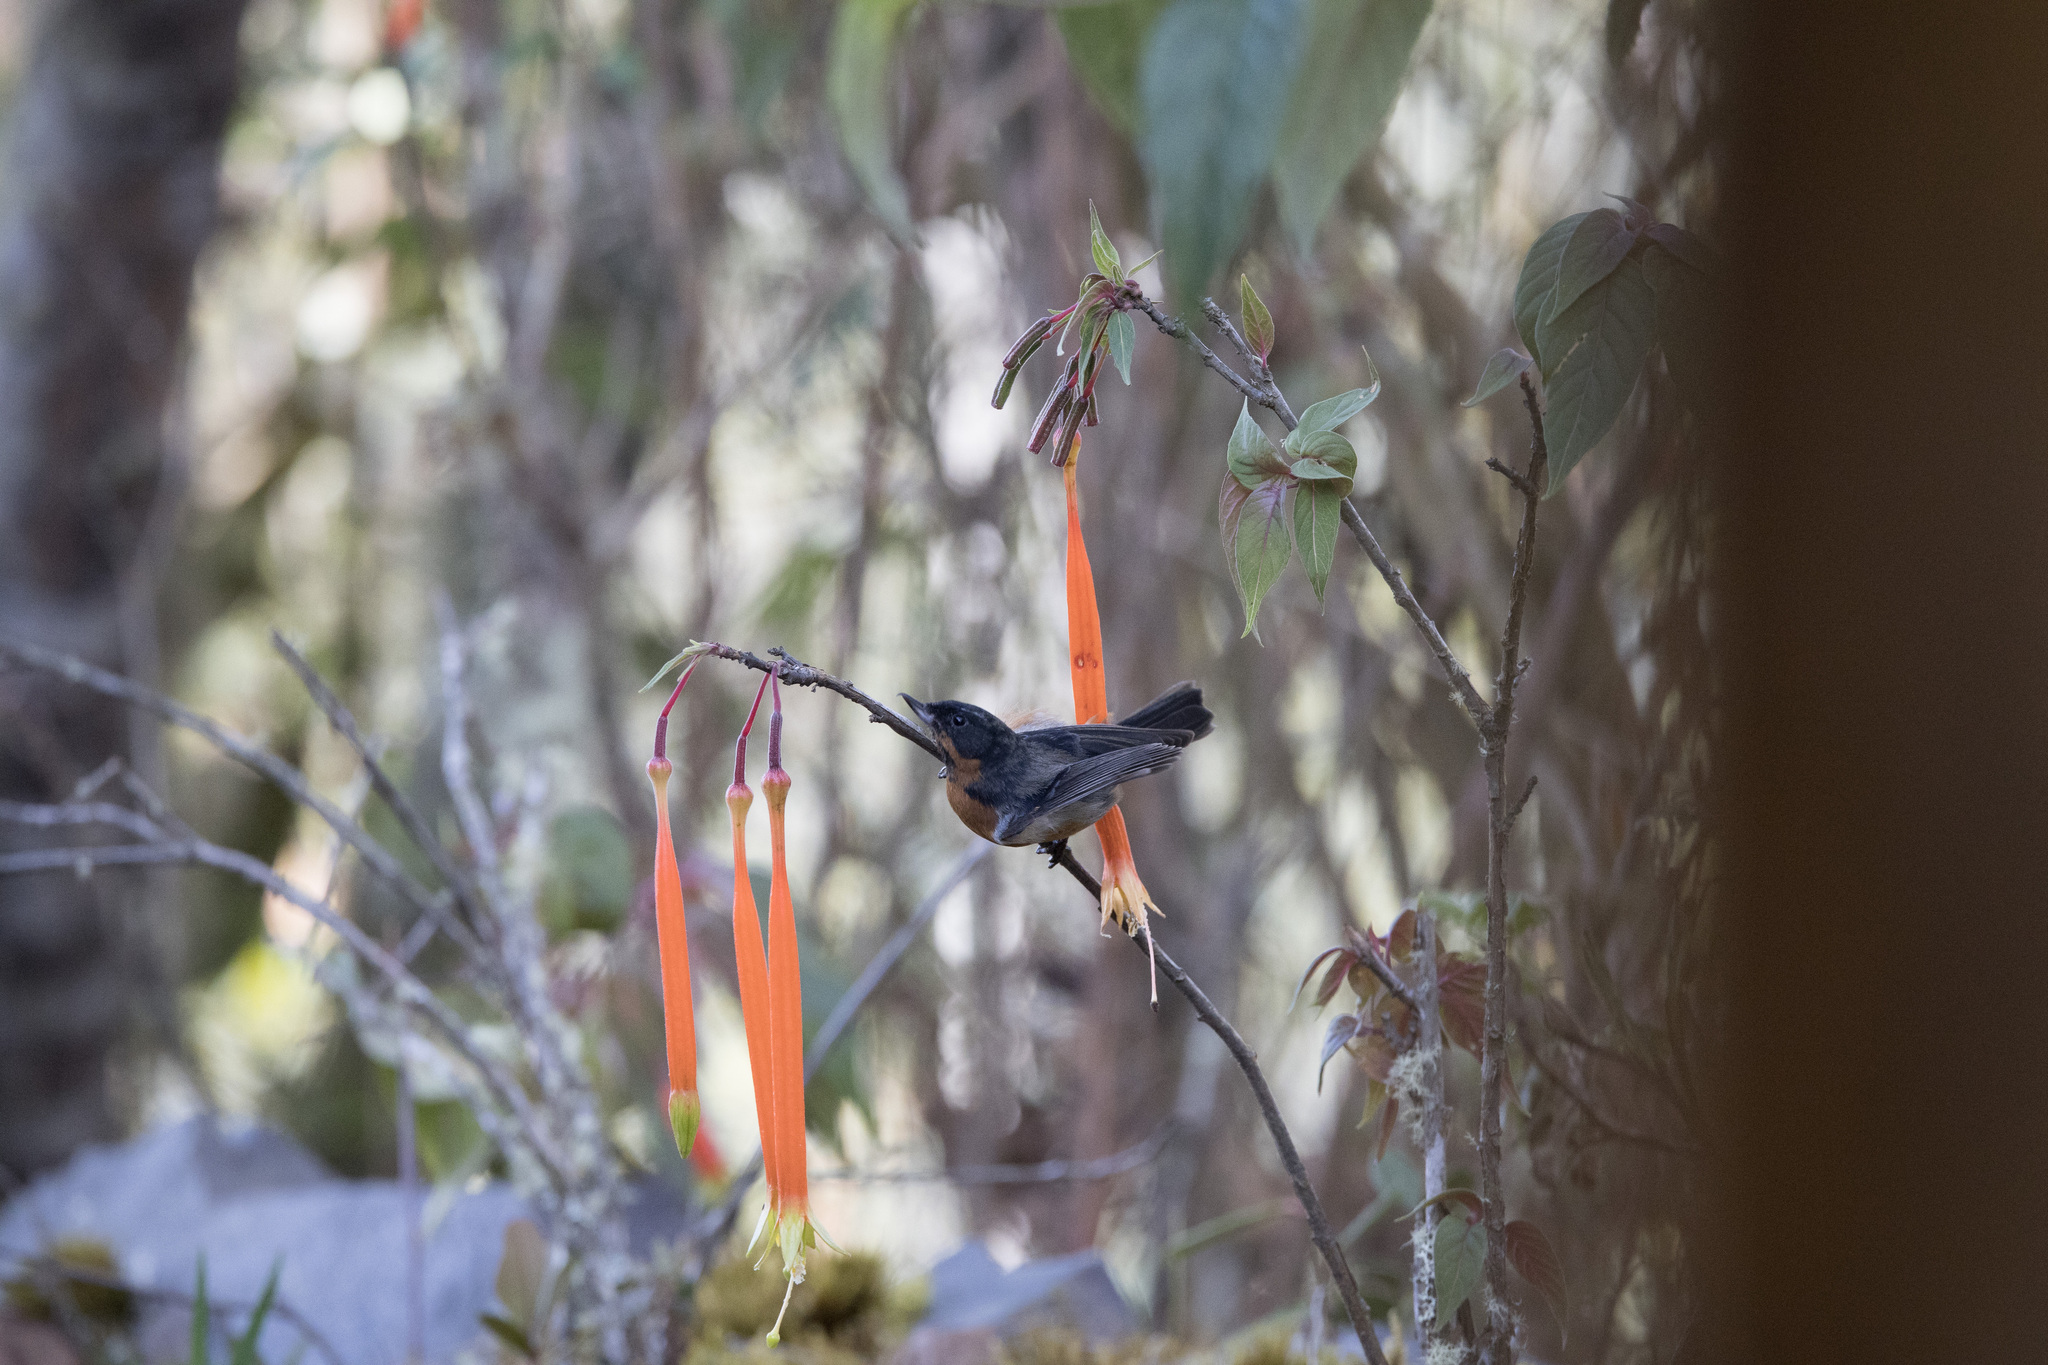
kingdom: Animalia
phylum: Chordata
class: Aves
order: Passeriformes
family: Thraupidae
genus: Diglossa
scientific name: Diglossa brunneiventris
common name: Black-throated flowerpiercer
